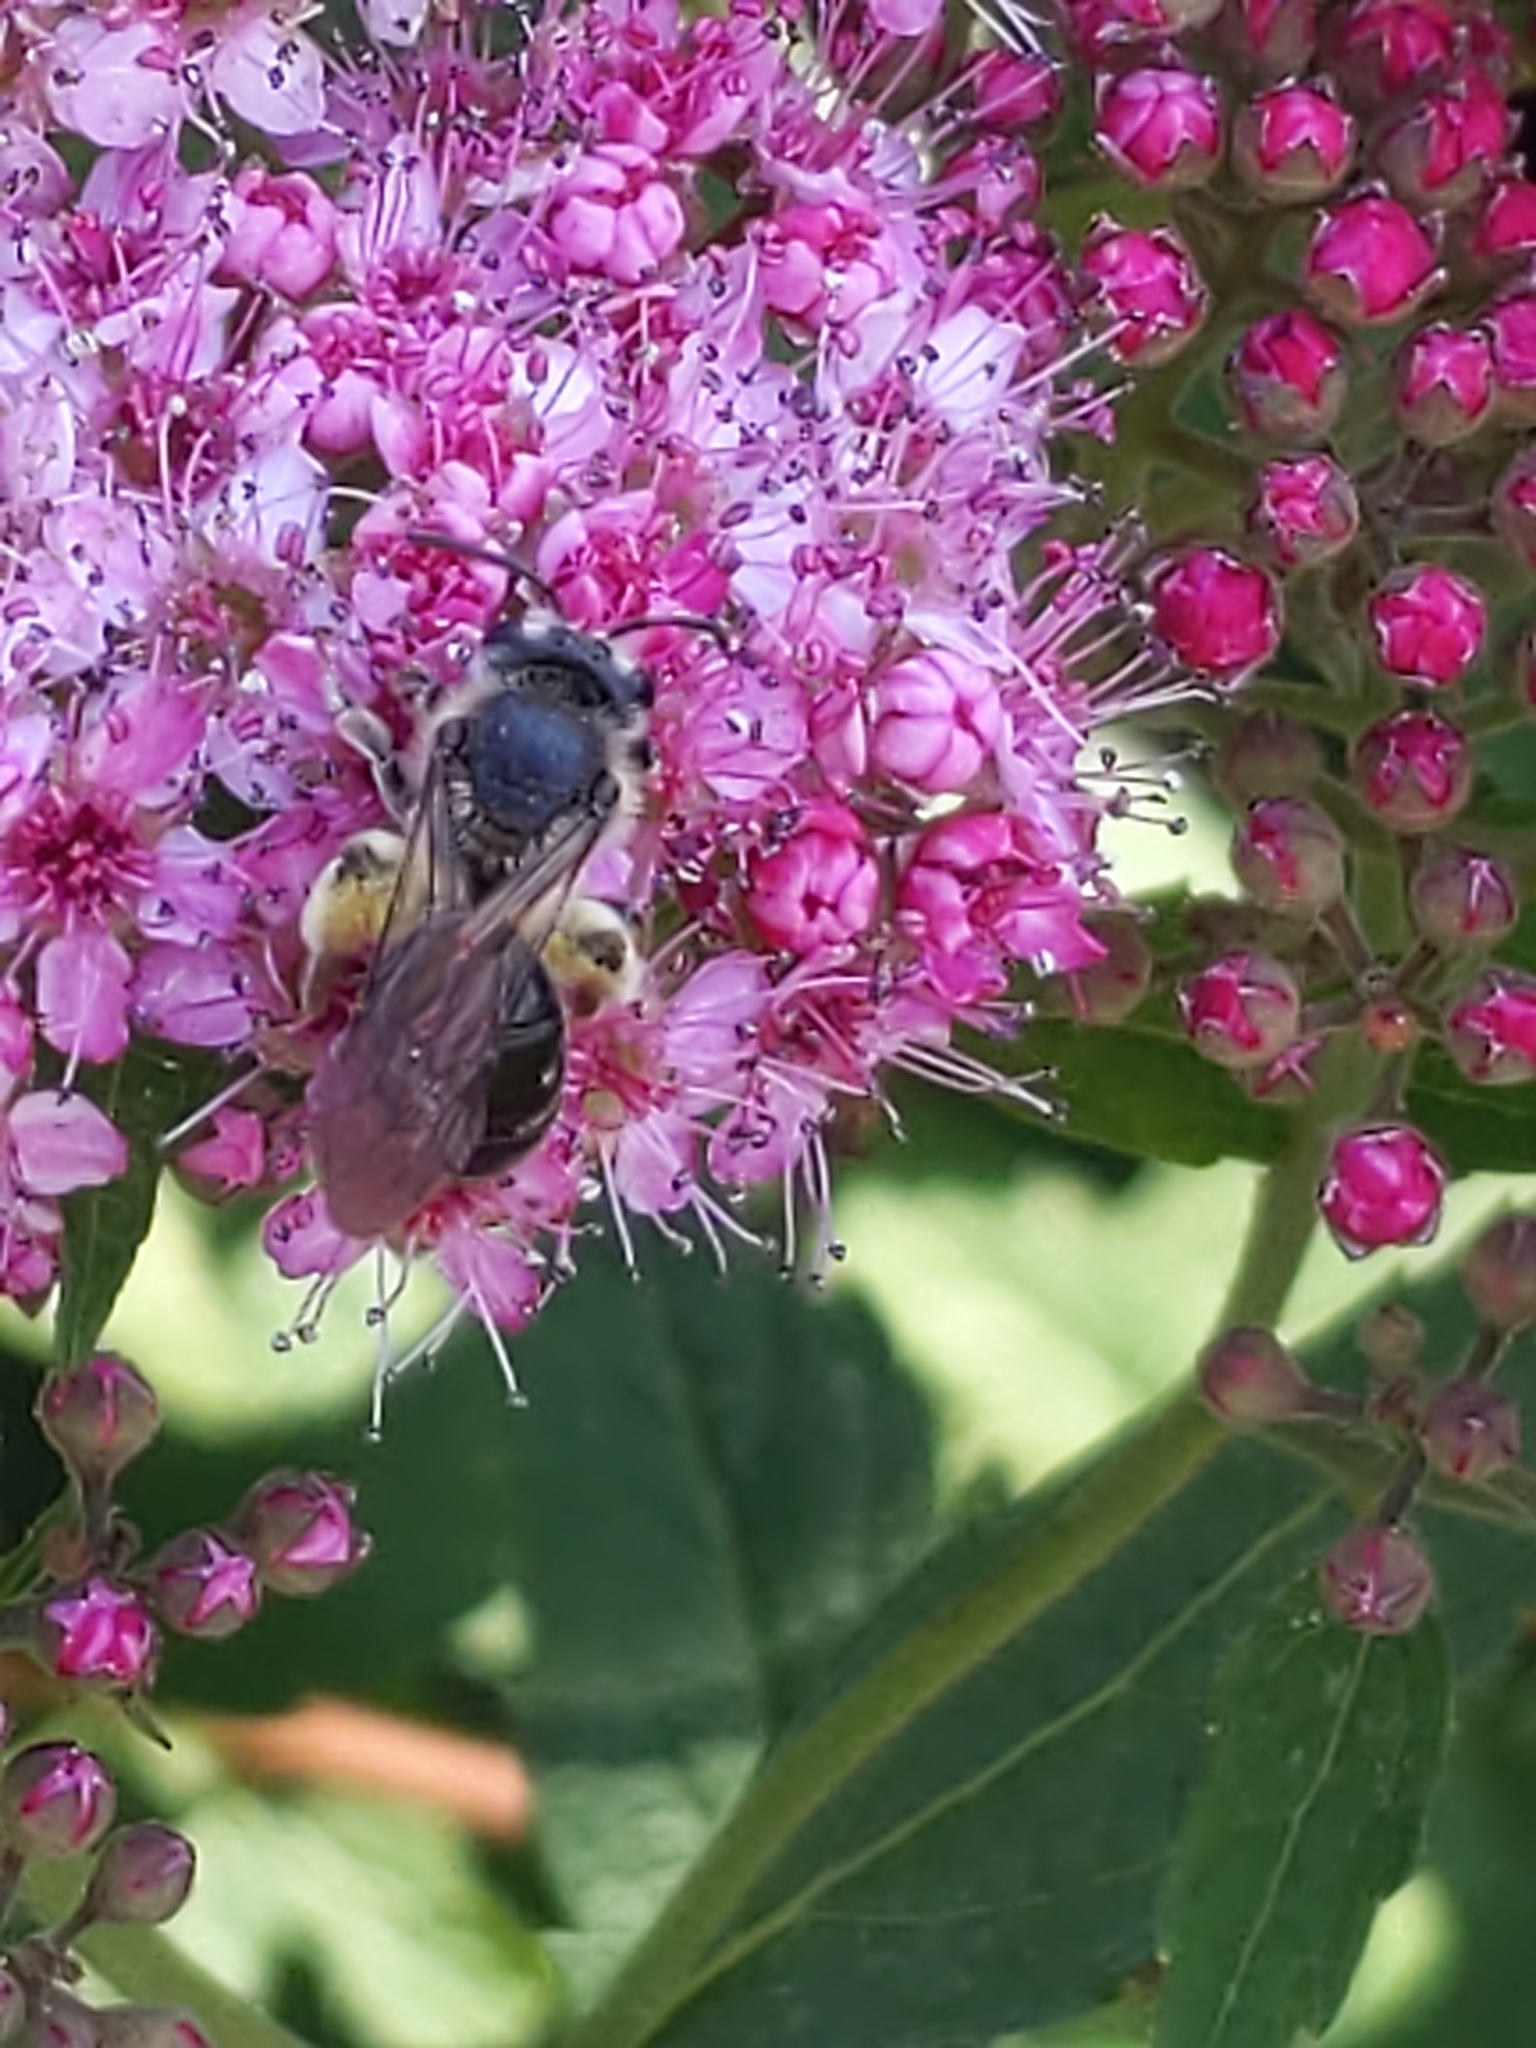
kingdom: Animalia
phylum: Arthropoda
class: Insecta
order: Hymenoptera
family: Andrenidae
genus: Andrena
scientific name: Andrena
